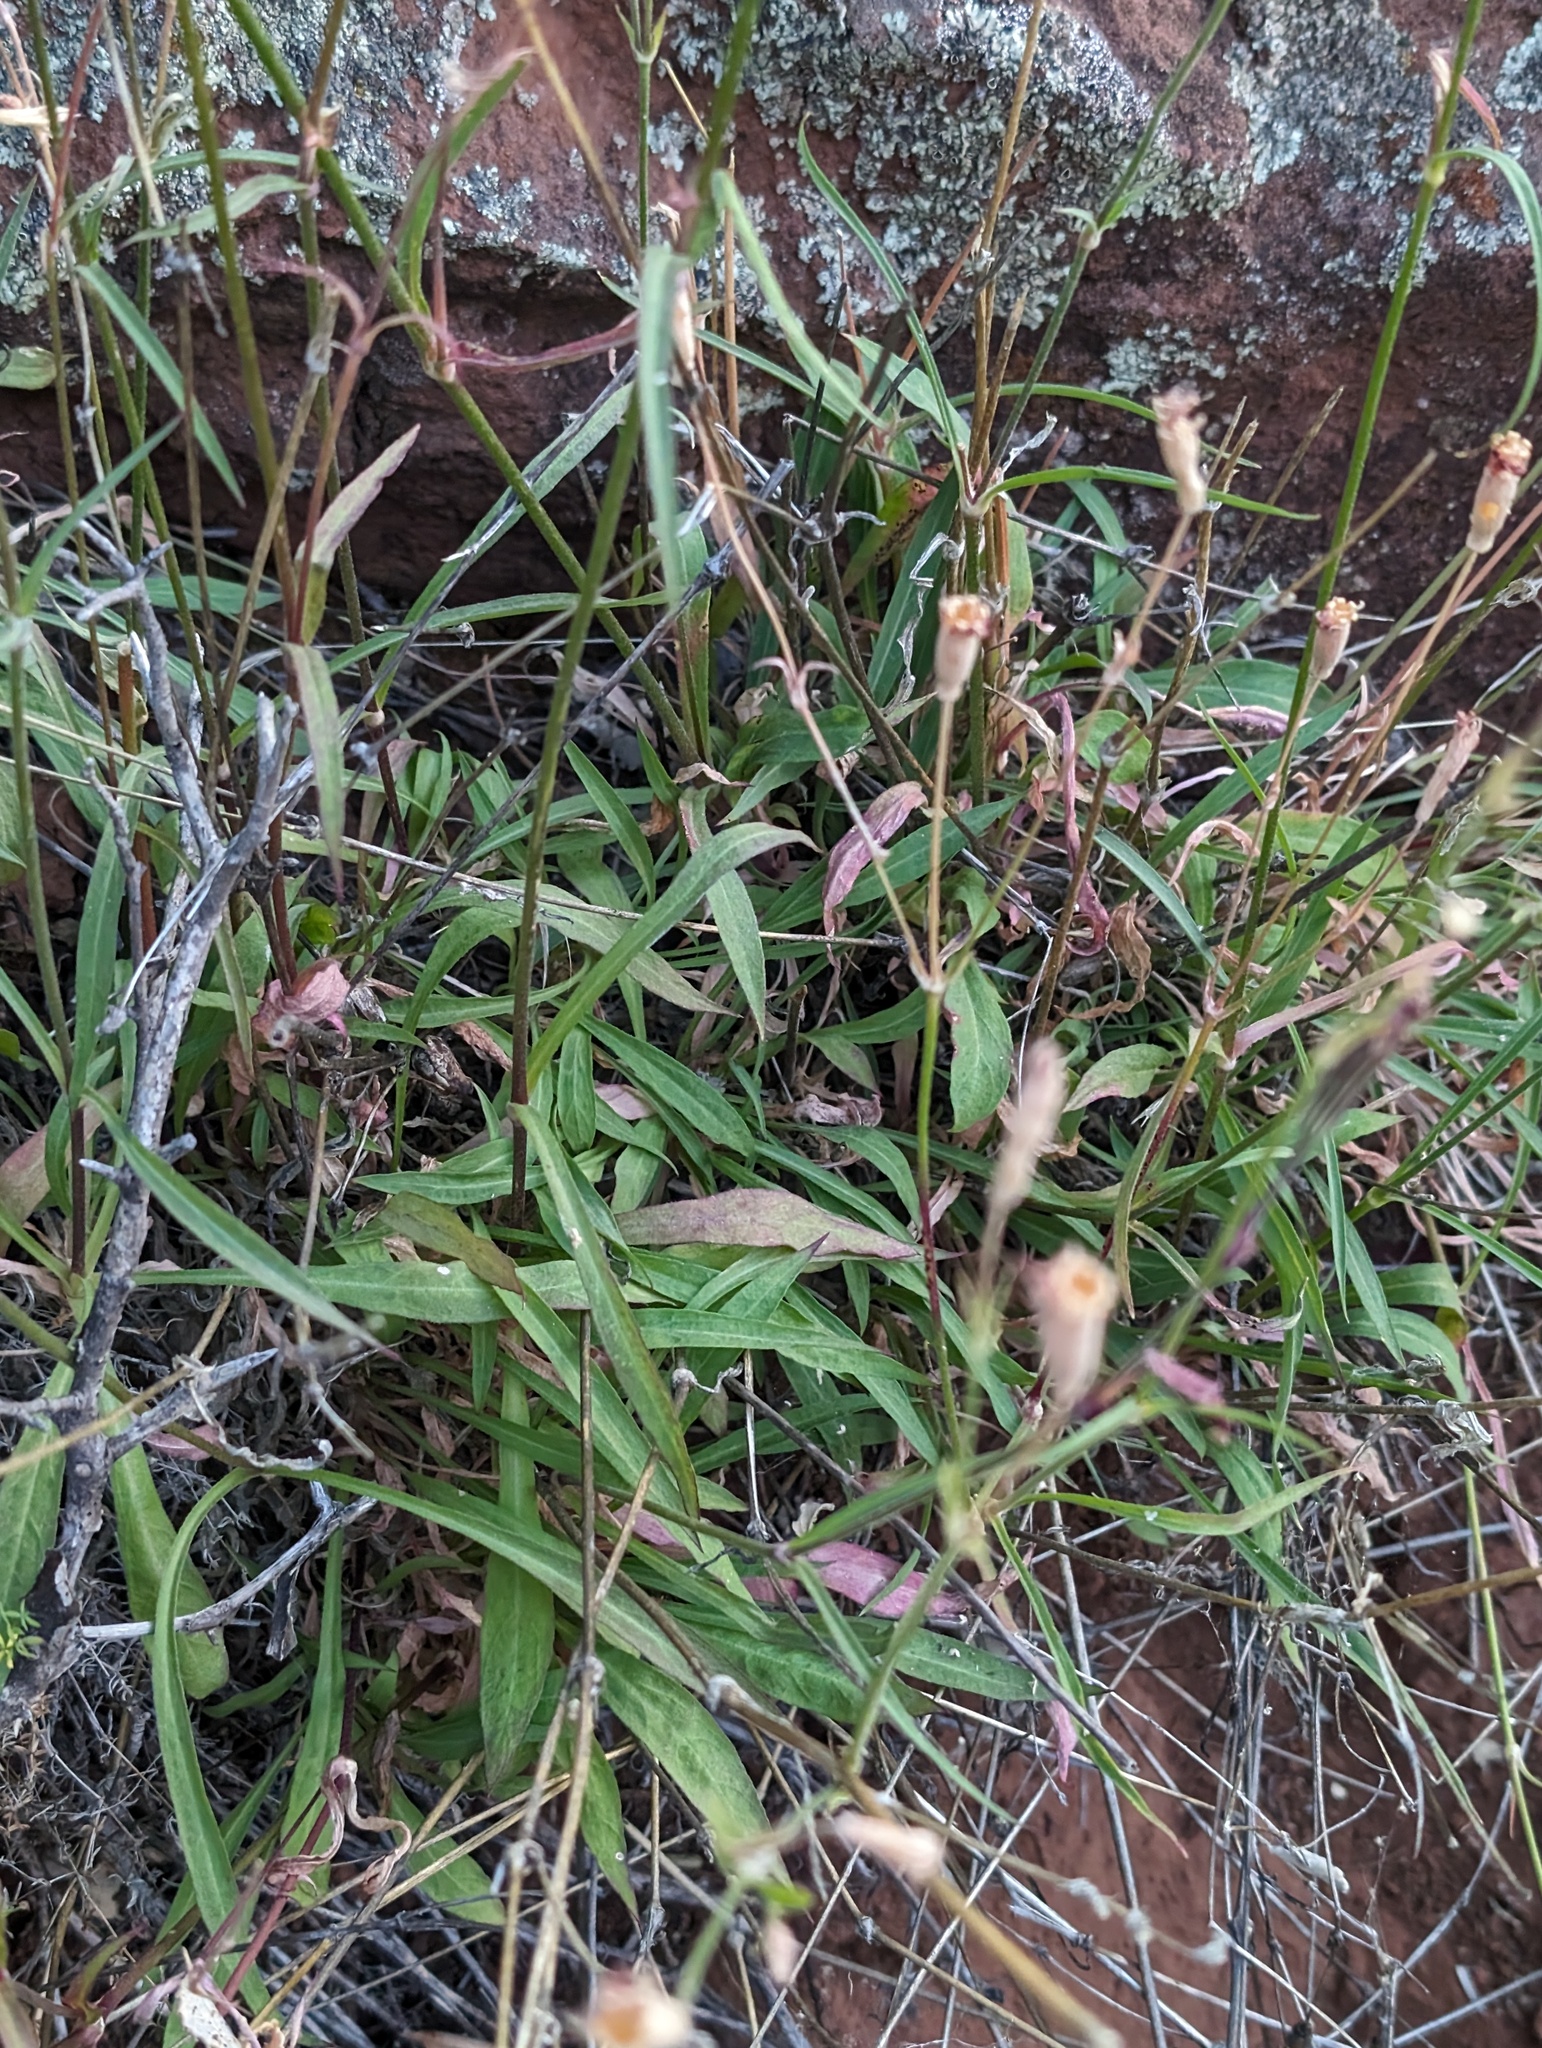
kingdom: Plantae
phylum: Tracheophyta
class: Magnoliopsida
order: Caryophyllales
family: Caryophyllaceae
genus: Silene
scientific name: Silene laciniata
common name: Indian-pink
